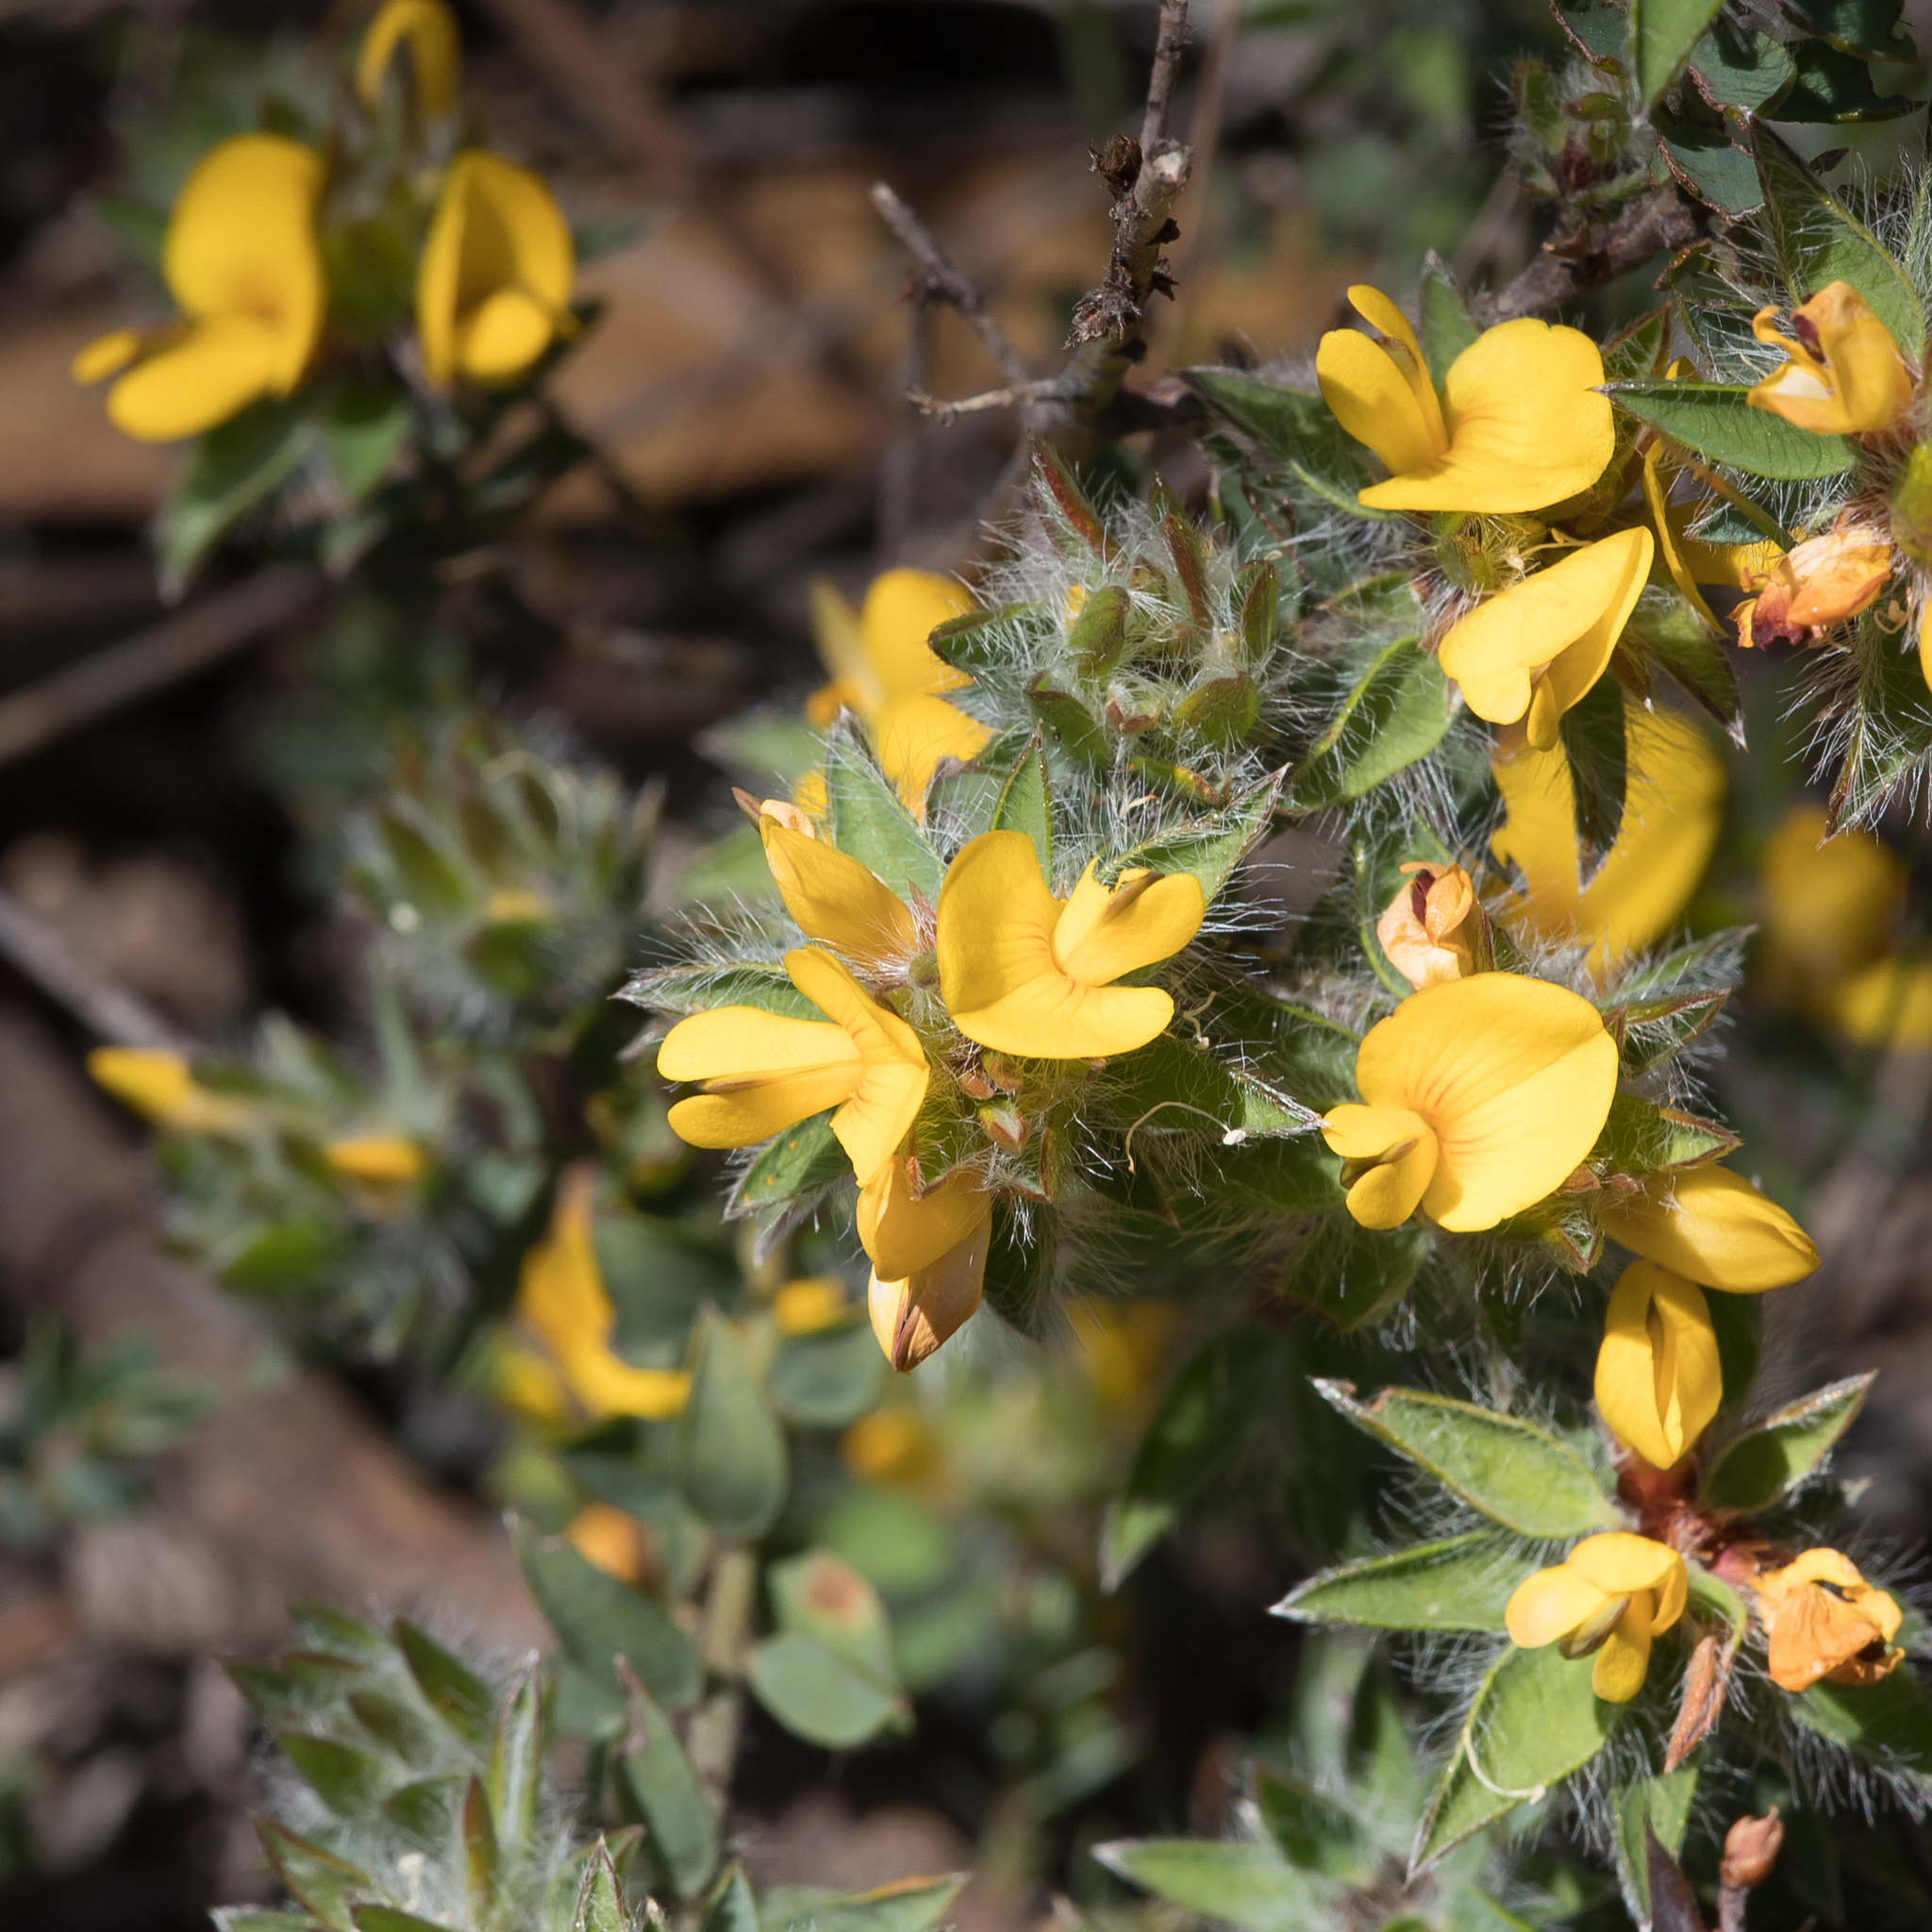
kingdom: Plantae
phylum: Tracheophyta
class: Magnoliopsida
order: Fabales
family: Fabaceae
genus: Pultenaea
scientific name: Pultenaea trinervis
